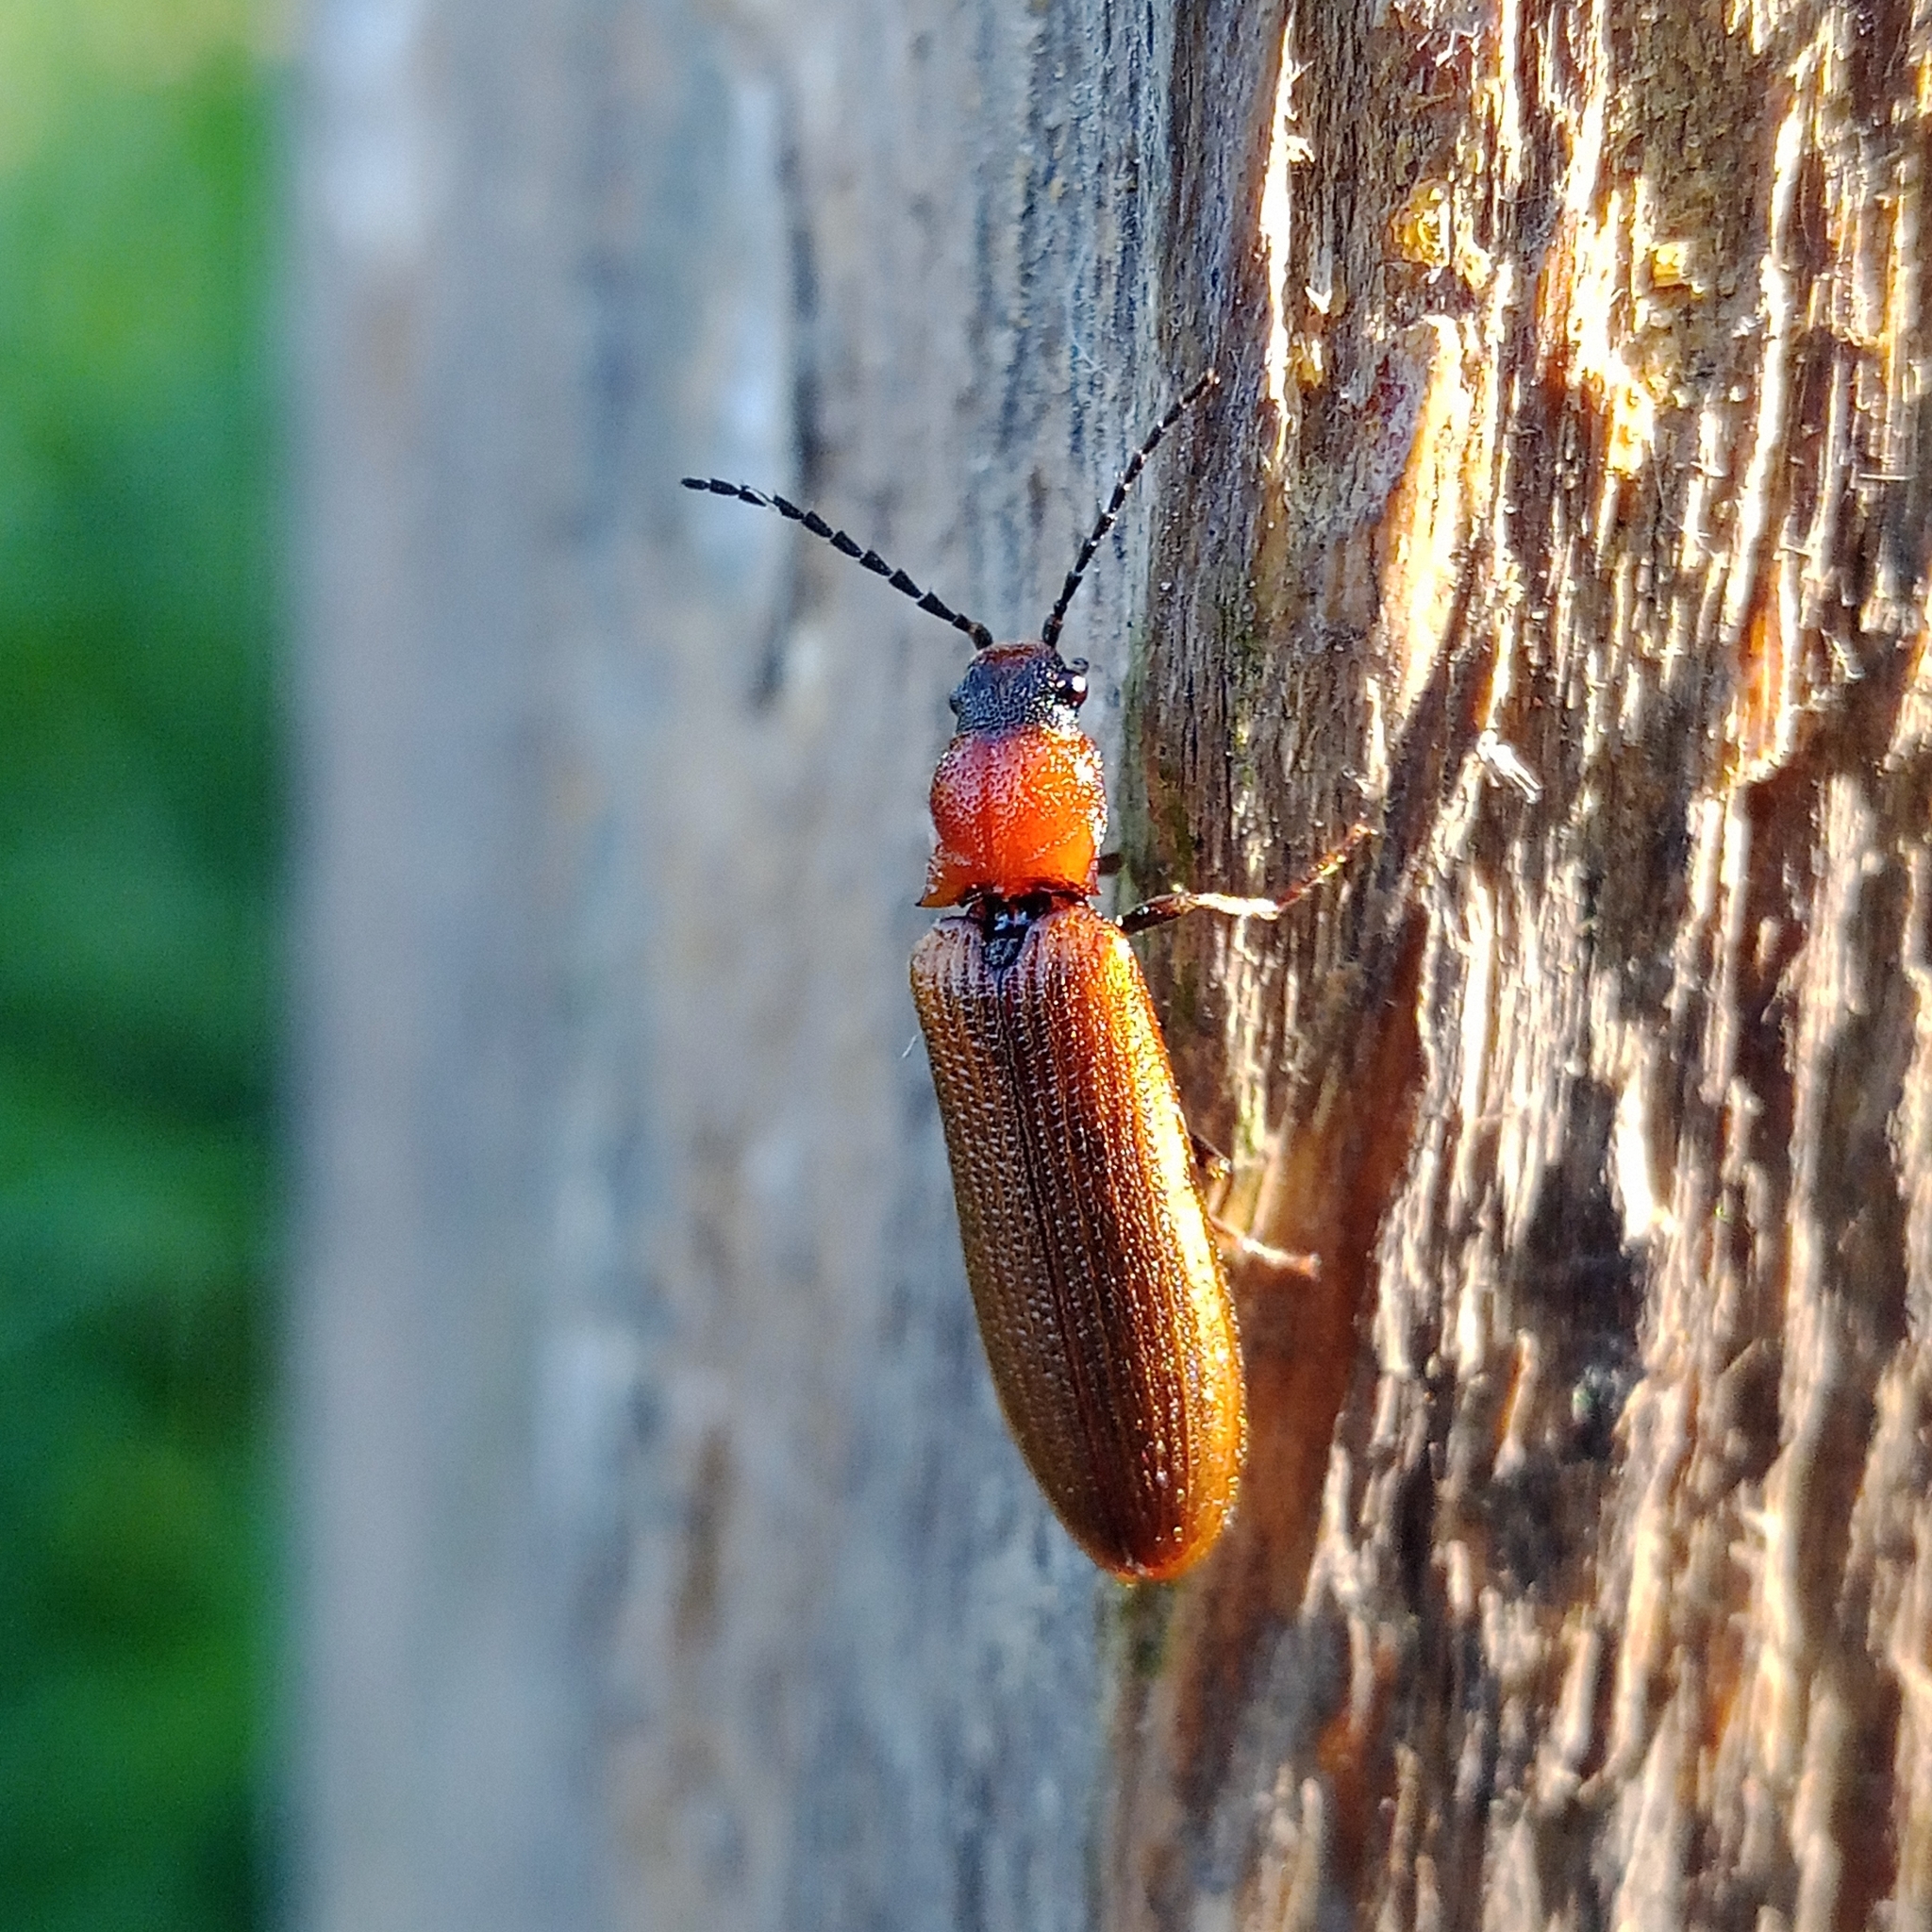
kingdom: Animalia
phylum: Arthropoda
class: Insecta
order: Coleoptera
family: Elateridae
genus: Denticollis
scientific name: Denticollis linearis
